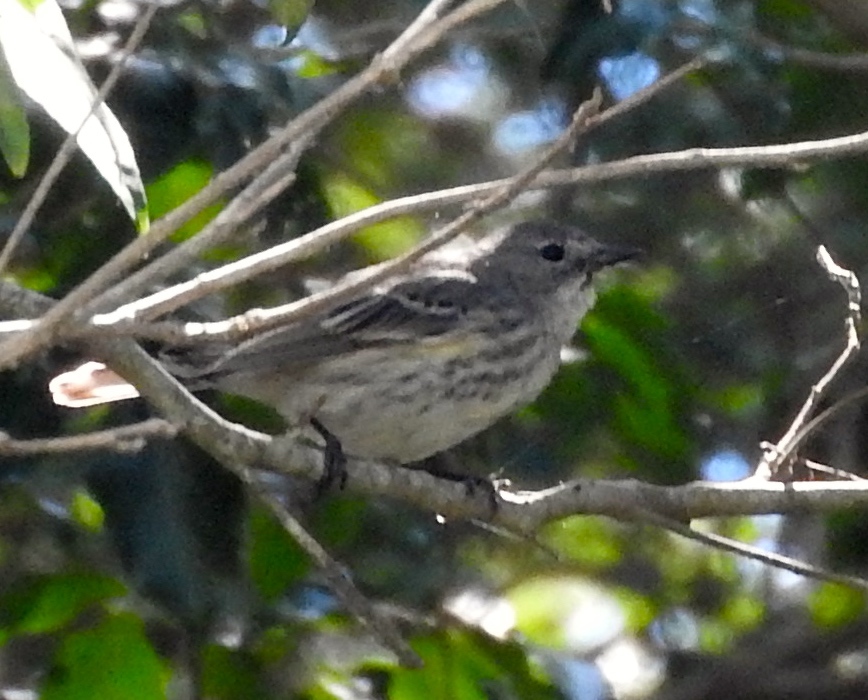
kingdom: Animalia
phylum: Chordata
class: Aves
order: Passeriformes
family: Parulidae
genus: Setophaga
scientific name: Setophaga coronata
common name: Myrtle warbler
